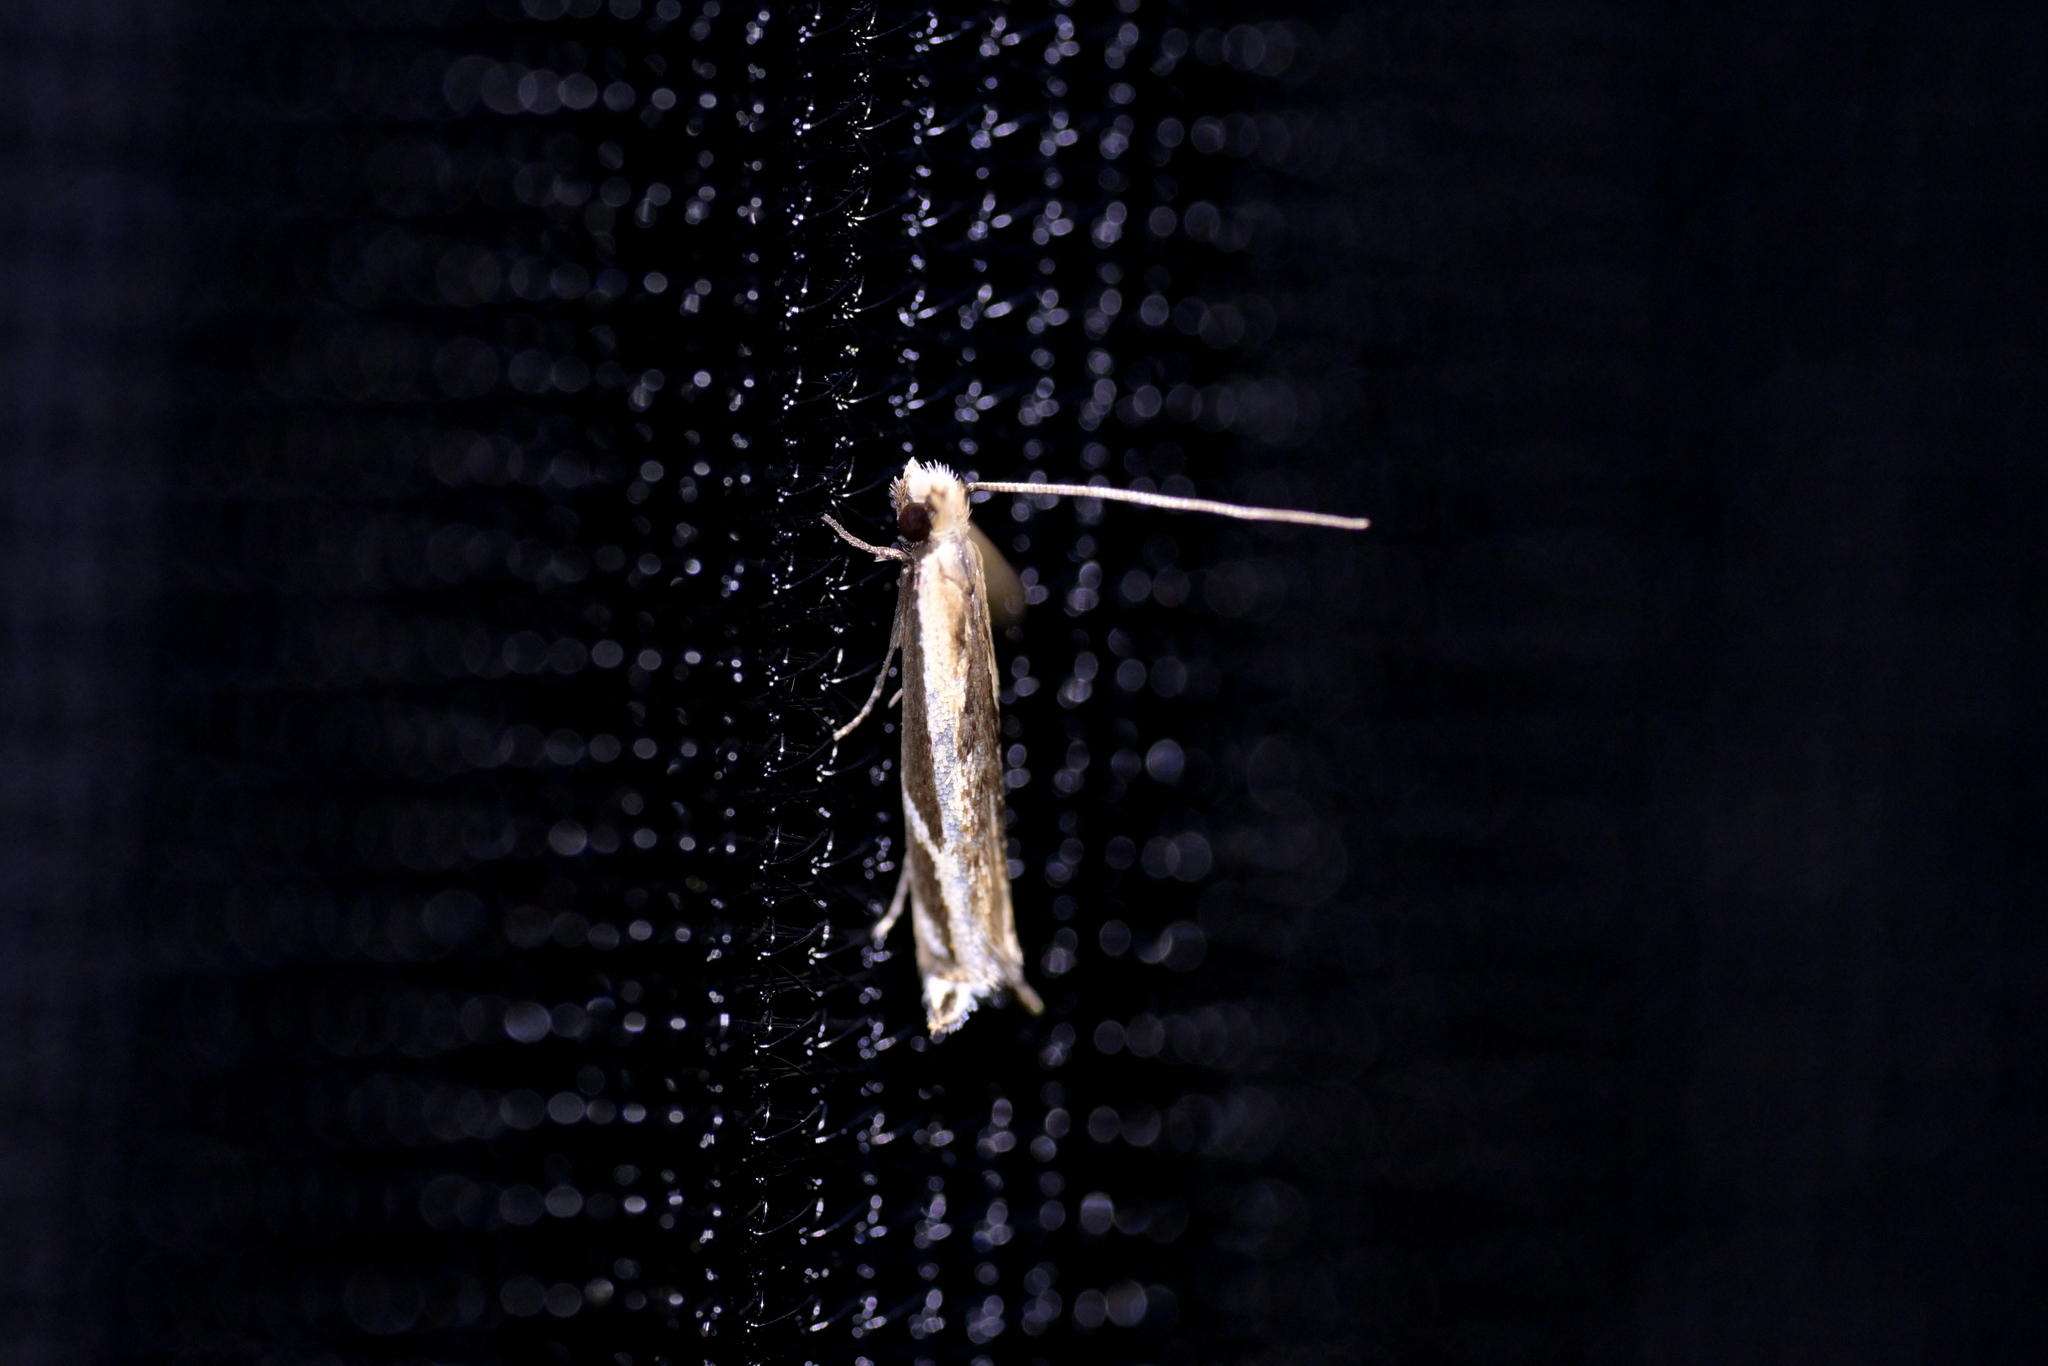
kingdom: Animalia
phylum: Arthropoda
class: Insecta
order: Lepidoptera
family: Tineidae
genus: Erechthias
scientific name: Erechthias terminella
